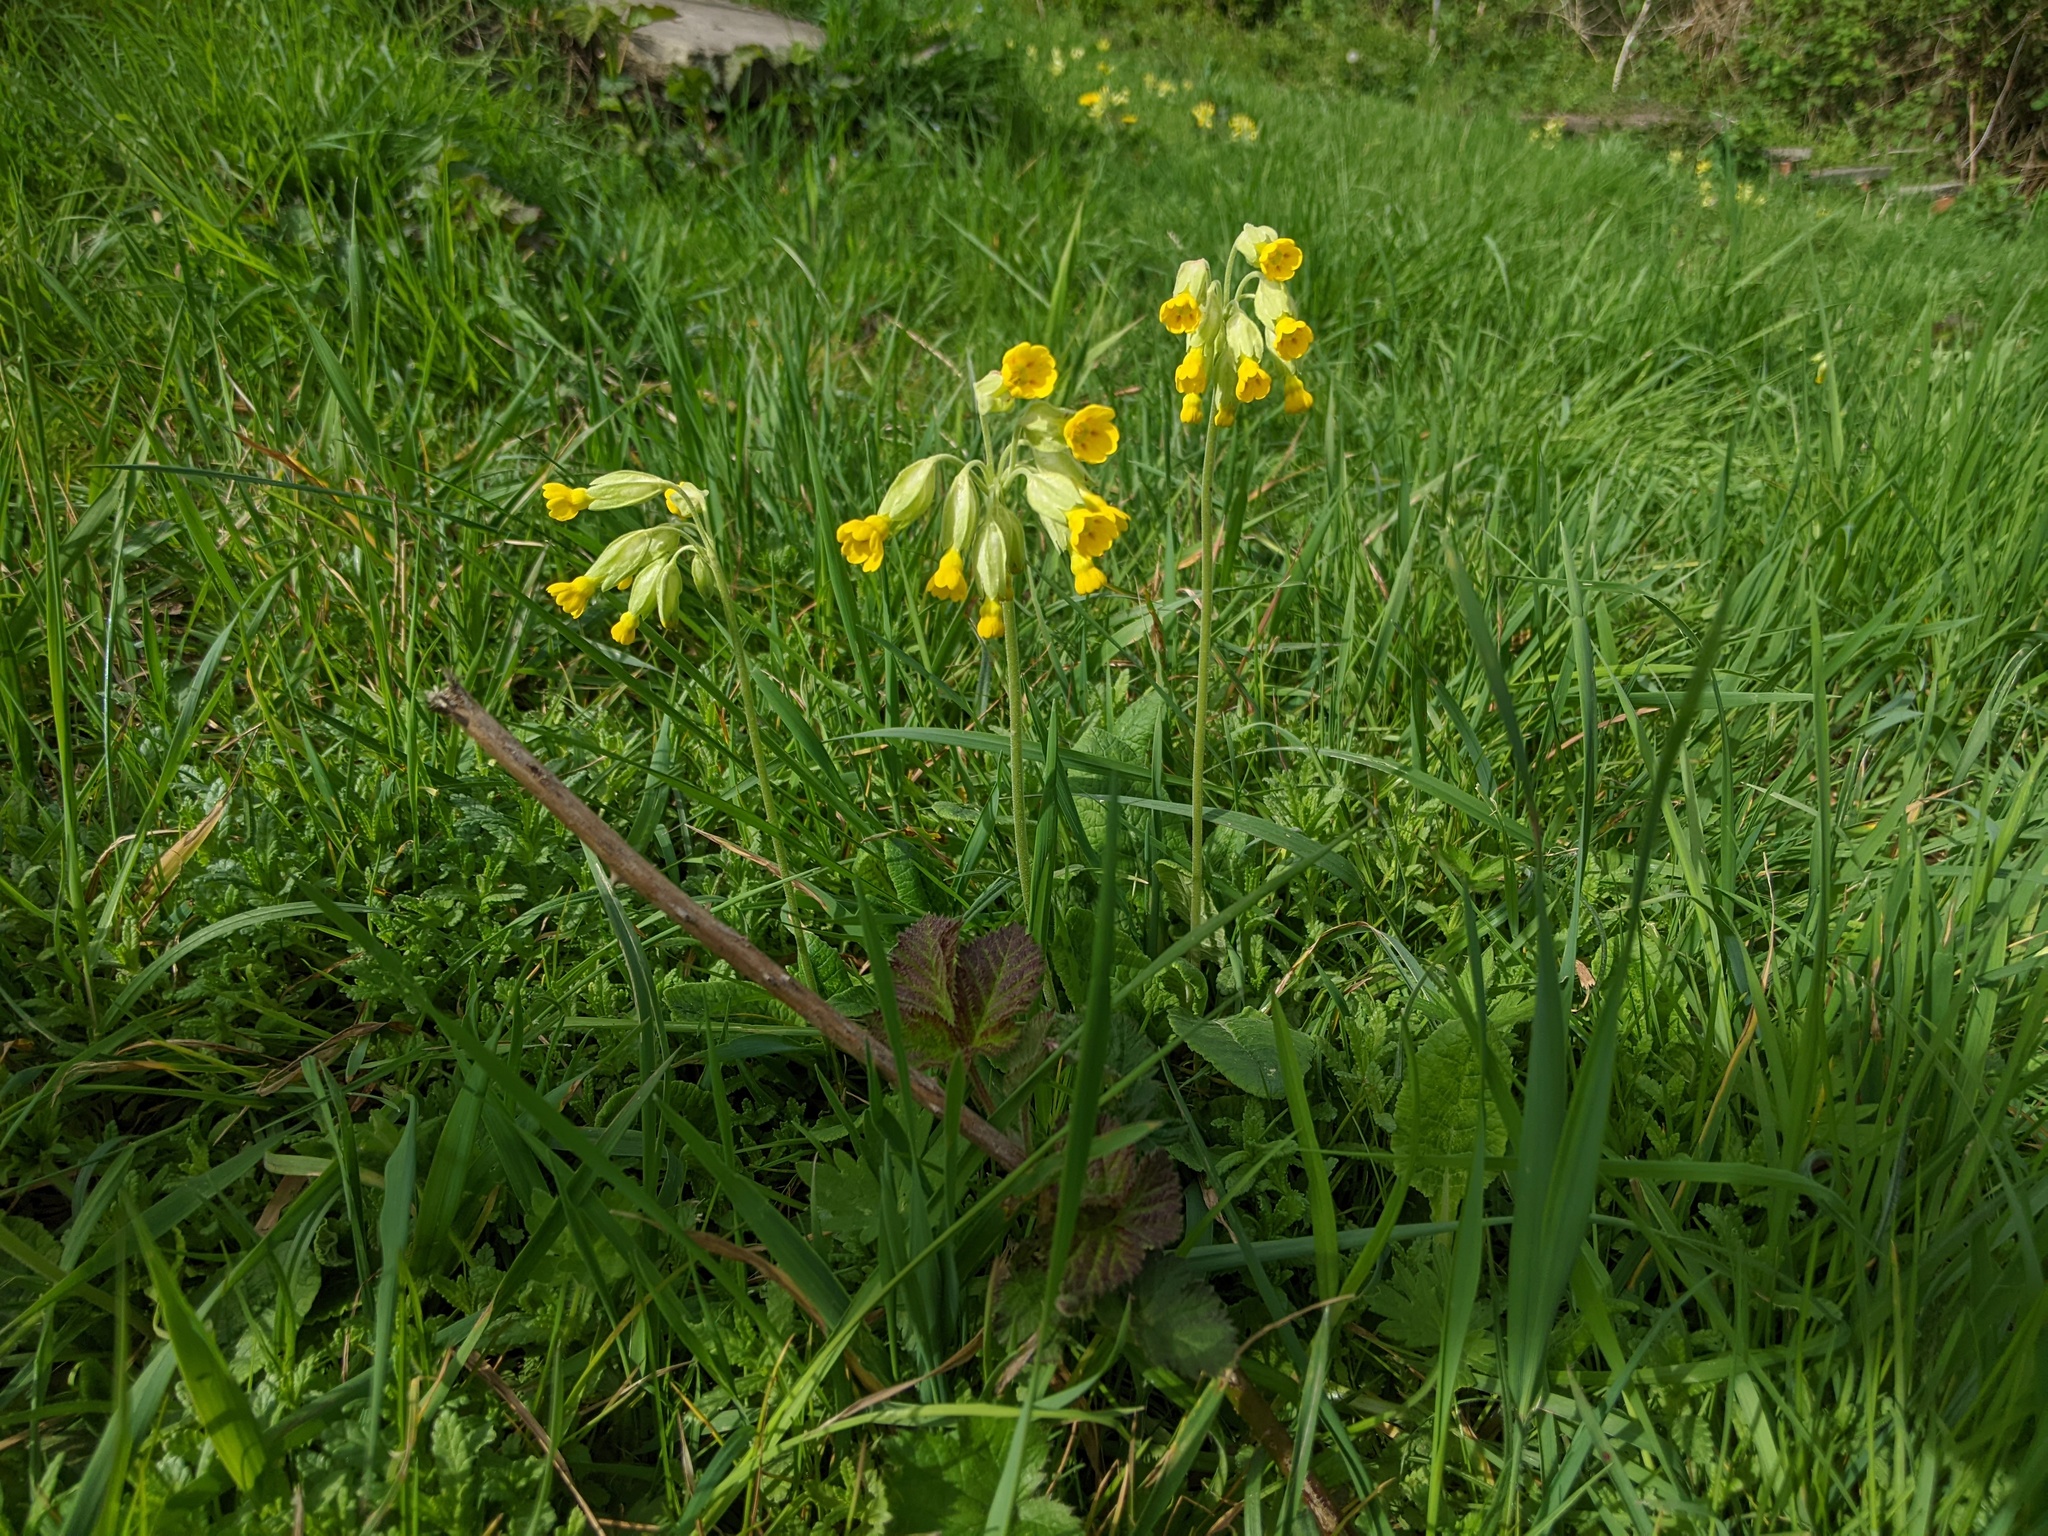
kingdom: Plantae
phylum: Tracheophyta
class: Magnoliopsida
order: Ericales
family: Primulaceae
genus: Primula
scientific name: Primula veris
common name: Cowslip
